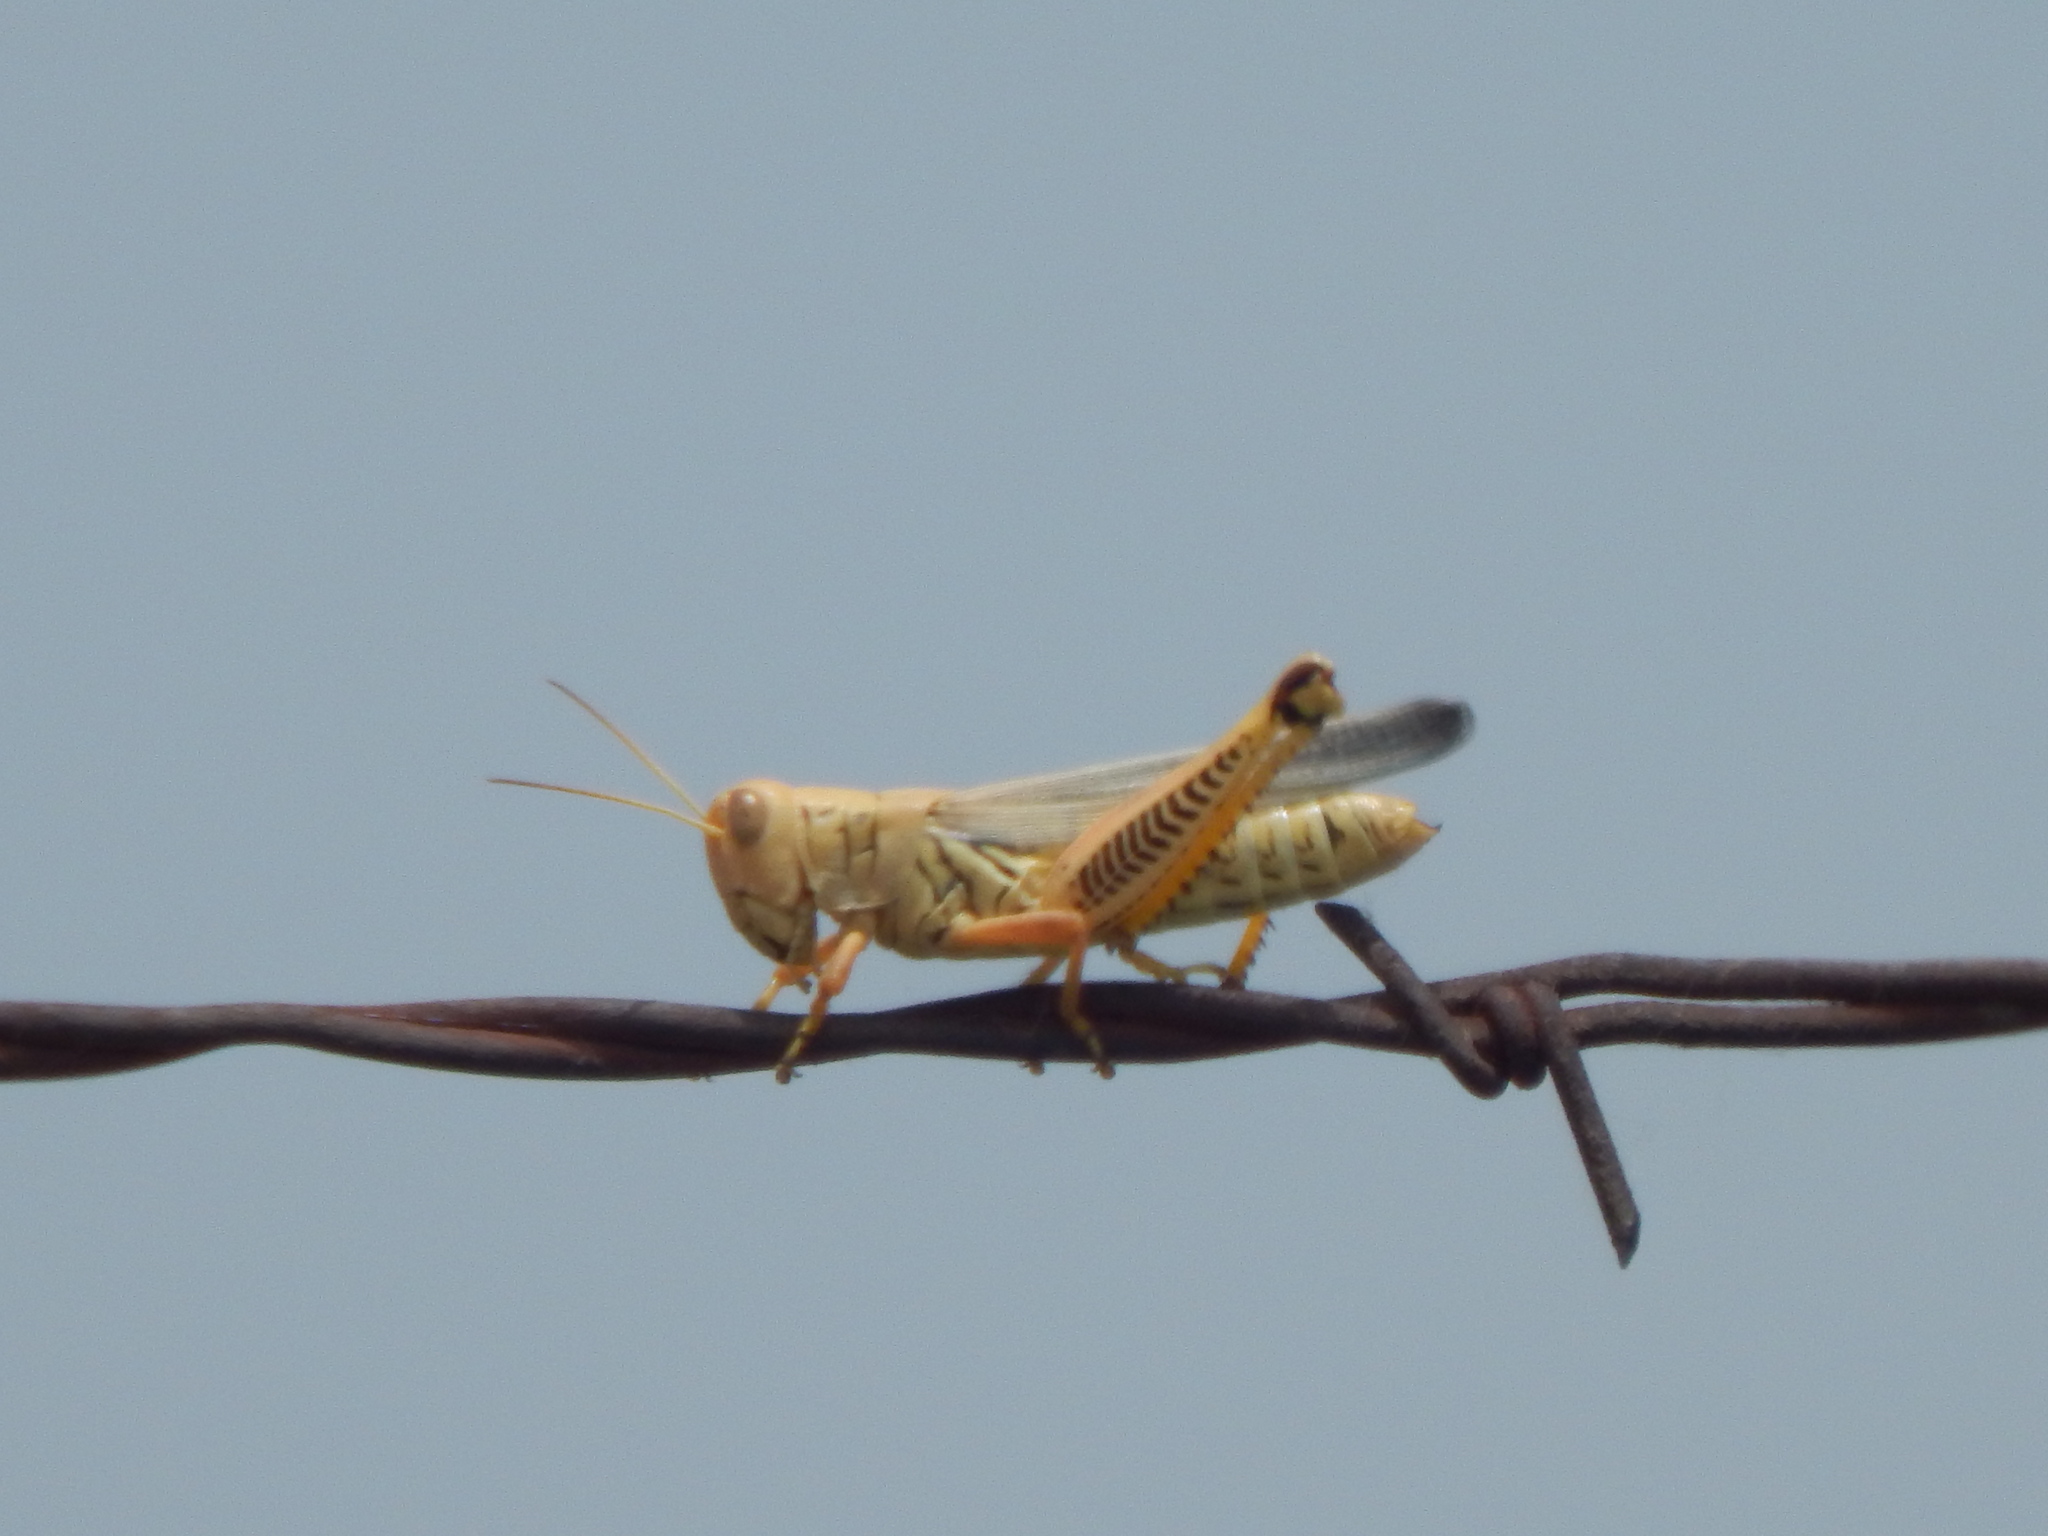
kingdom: Animalia
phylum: Arthropoda
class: Insecta
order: Orthoptera
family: Acrididae
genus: Melanoplus
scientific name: Melanoplus differentialis
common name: Differential grasshopper
